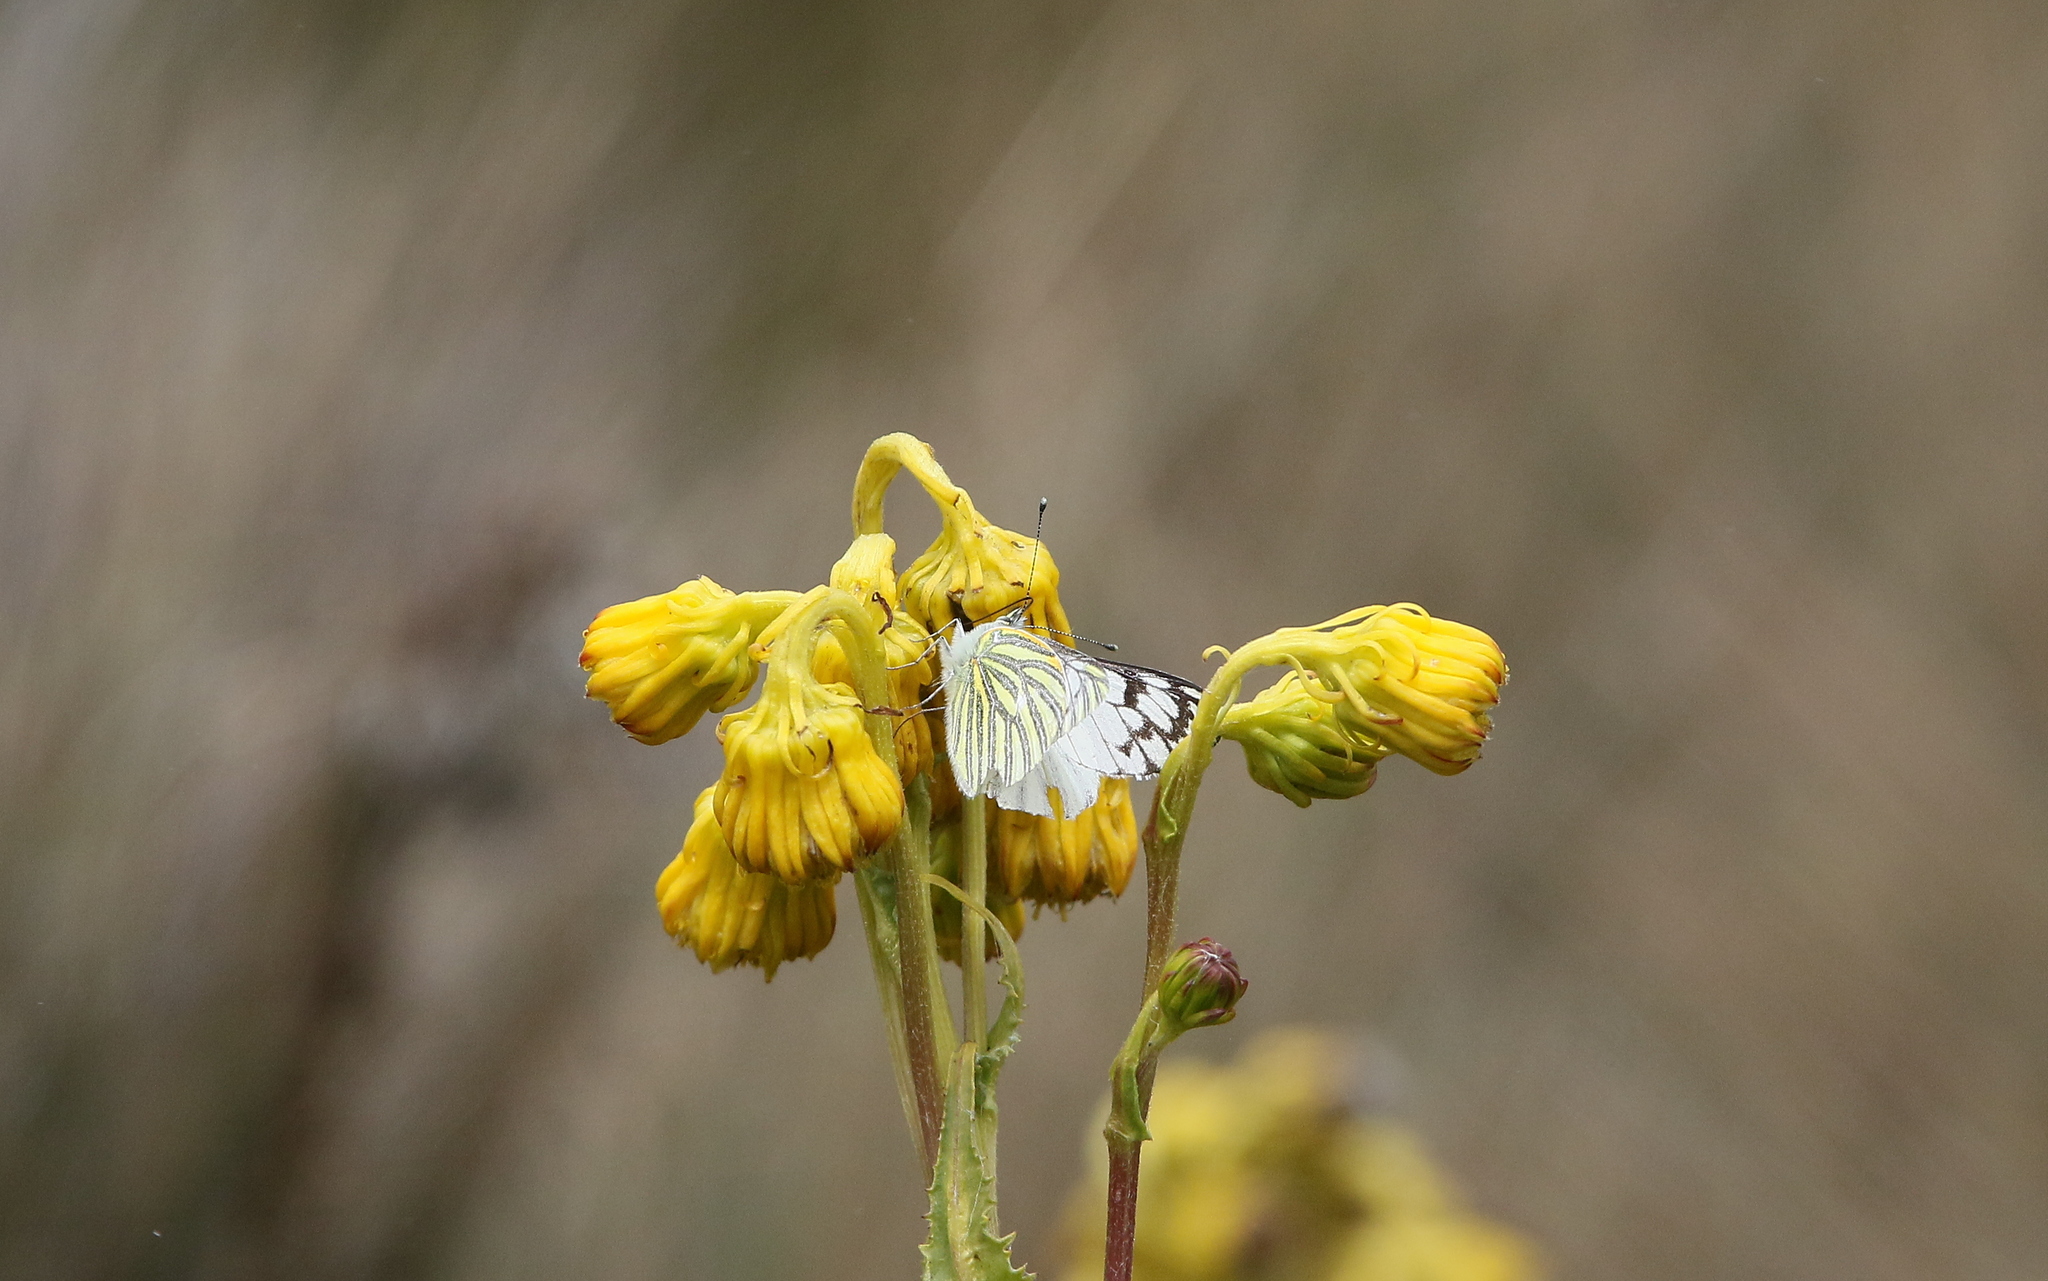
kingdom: Animalia
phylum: Arthropoda
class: Insecta
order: Lepidoptera
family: Pieridae
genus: Tatochila
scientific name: Tatochila mercedis
